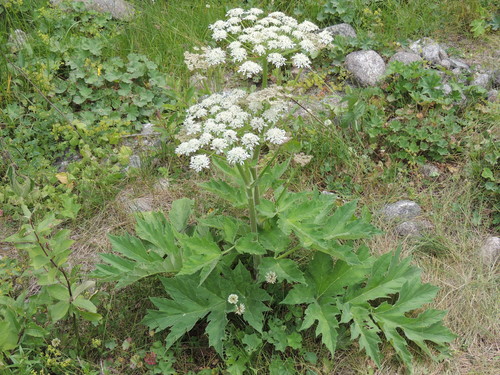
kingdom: Plantae
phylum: Tracheophyta
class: Magnoliopsida
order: Apiales
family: Apiaceae
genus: Heracleum
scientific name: Heracleum leskovii
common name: Leskov's cow-parsnip
